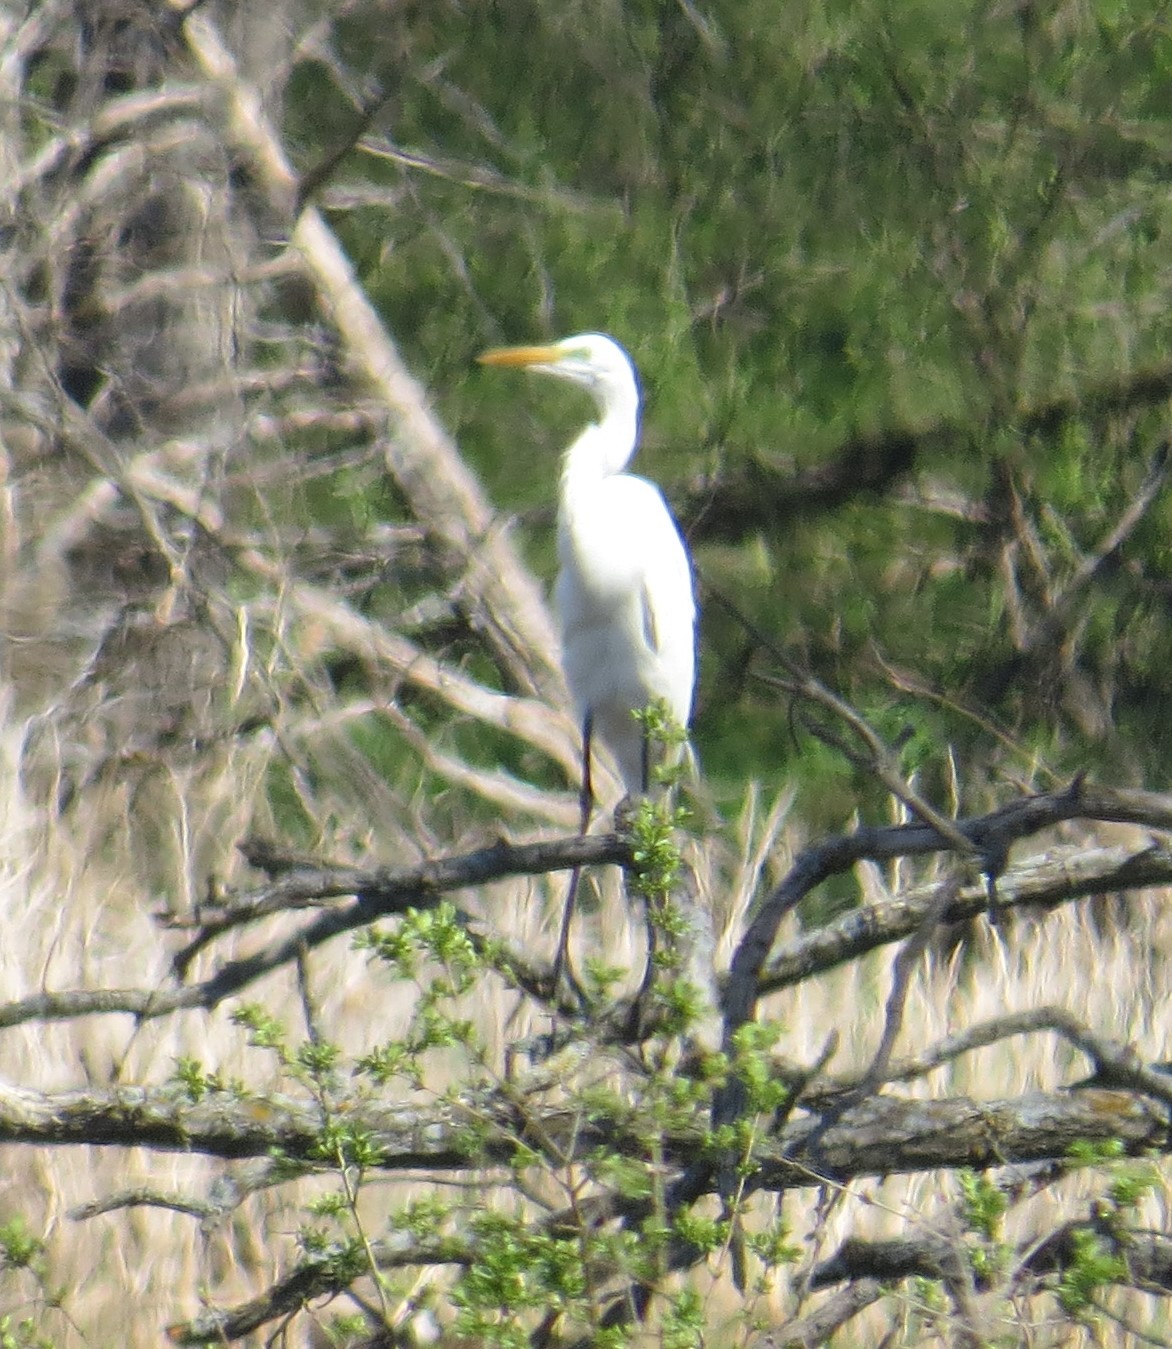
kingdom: Animalia
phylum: Chordata
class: Aves
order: Pelecaniformes
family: Ardeidae
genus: Ardea
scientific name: Ardea alba
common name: Great egret
